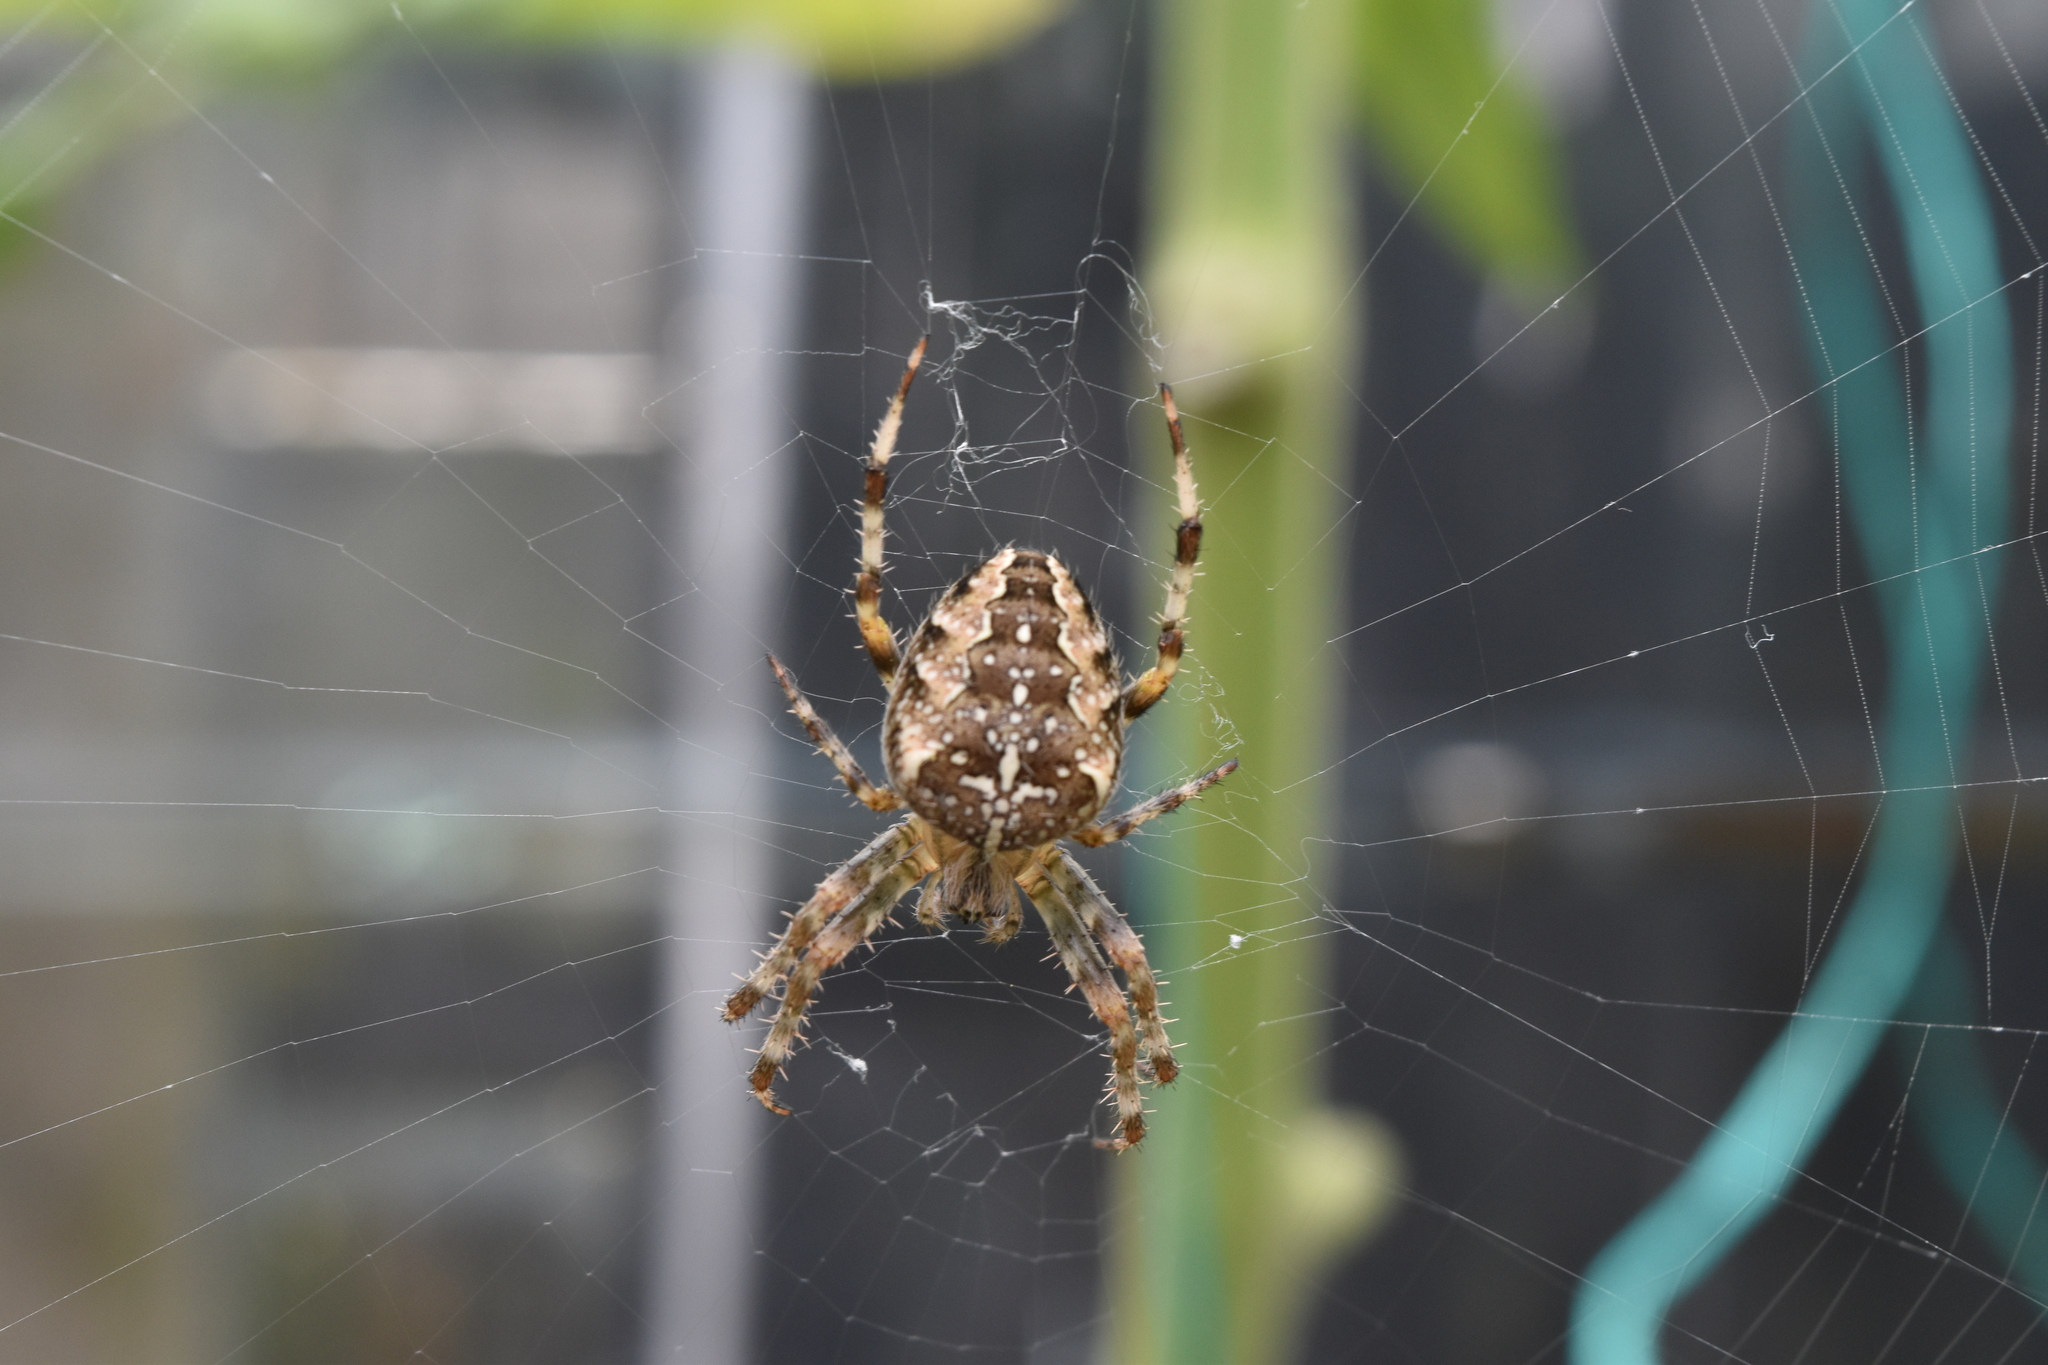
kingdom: Animalia
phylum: Arthropoda
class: Arachnida
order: Araneae
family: Araneidae
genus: Araneus
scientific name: Araneus diadematus
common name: Cross orbweaver
